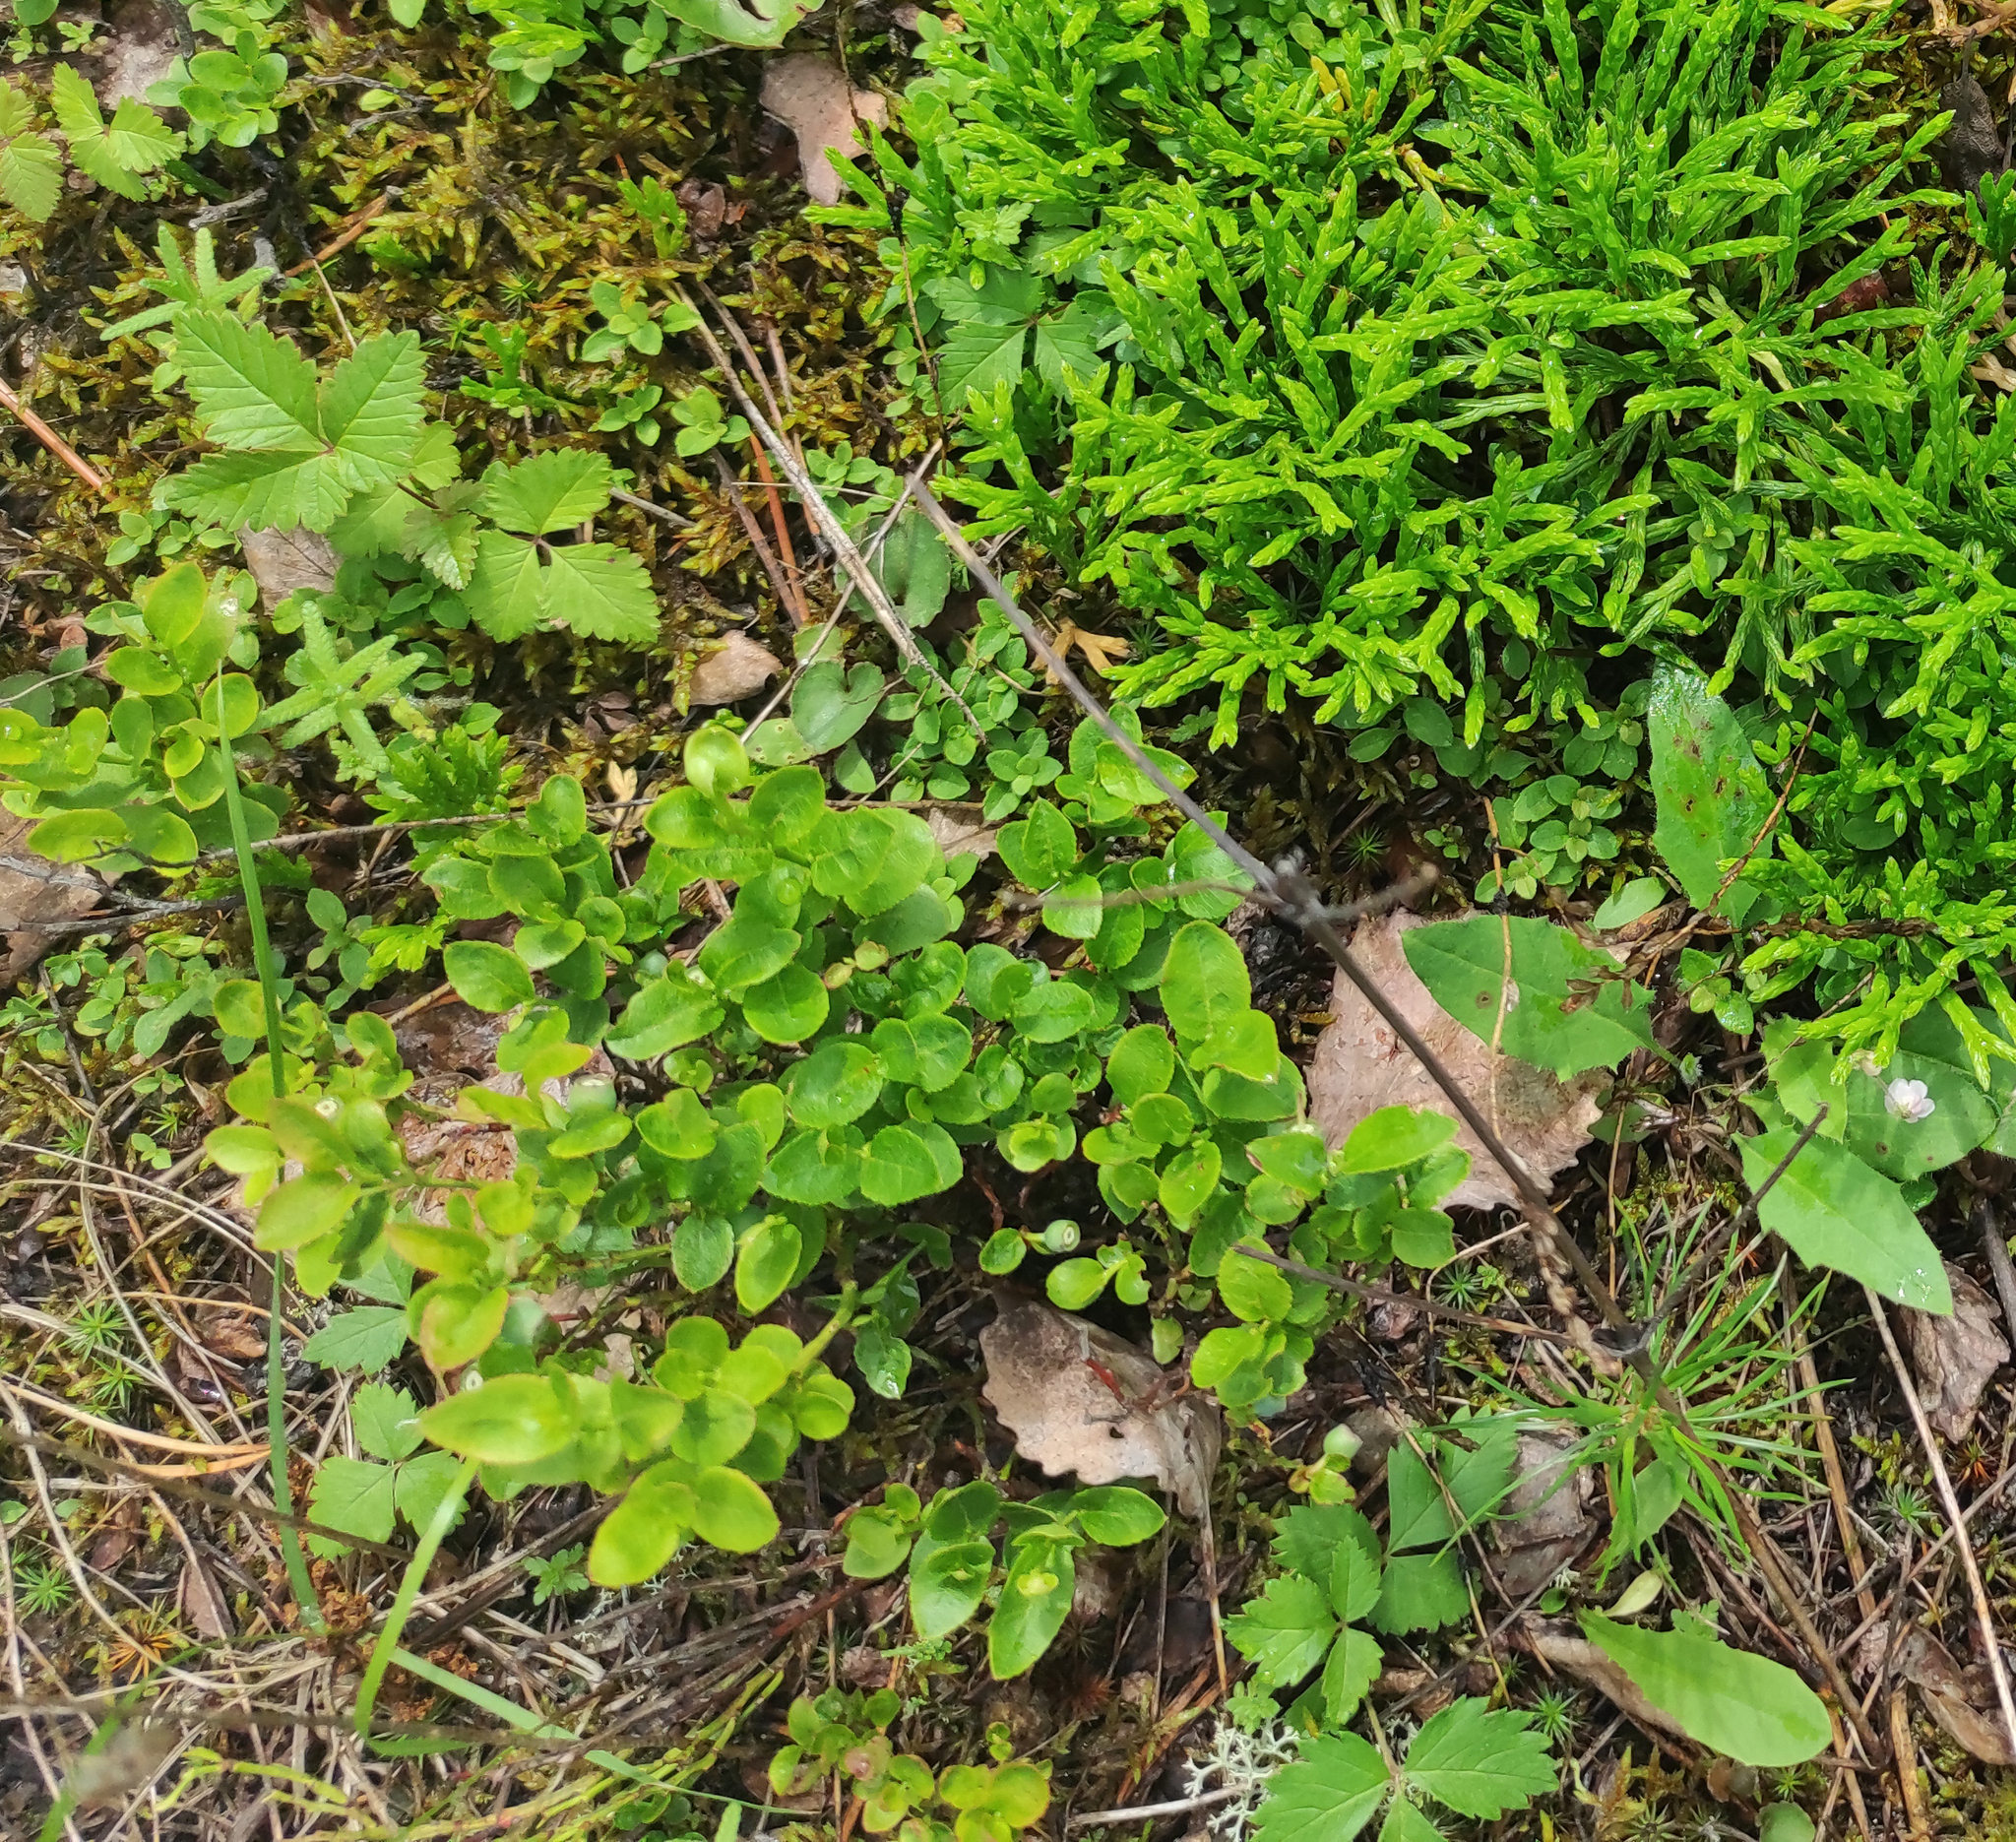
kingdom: Plantae
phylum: Tracheophyta
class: Magnoliopsida
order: Ericales
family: Ericaceae
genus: Vaccinium
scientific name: Vaccinium myrtillus
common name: Bilberry
